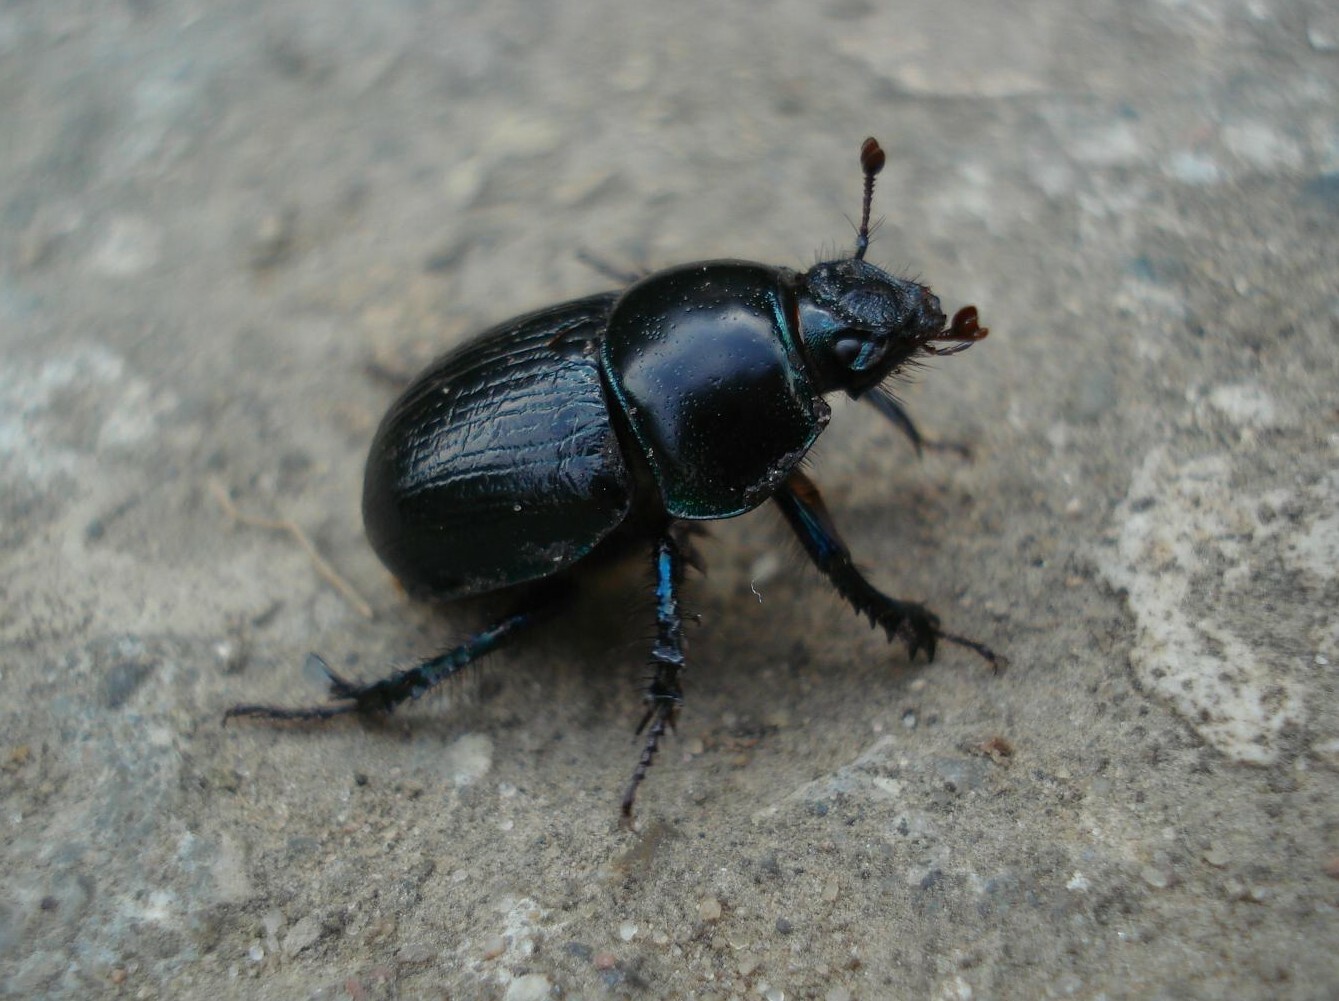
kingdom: Animalia
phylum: Arthropoda
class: Insecta
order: Coleoptera
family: Geotrupidae
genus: Anoplotrupes
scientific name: Anoplotrupes stercorosus
